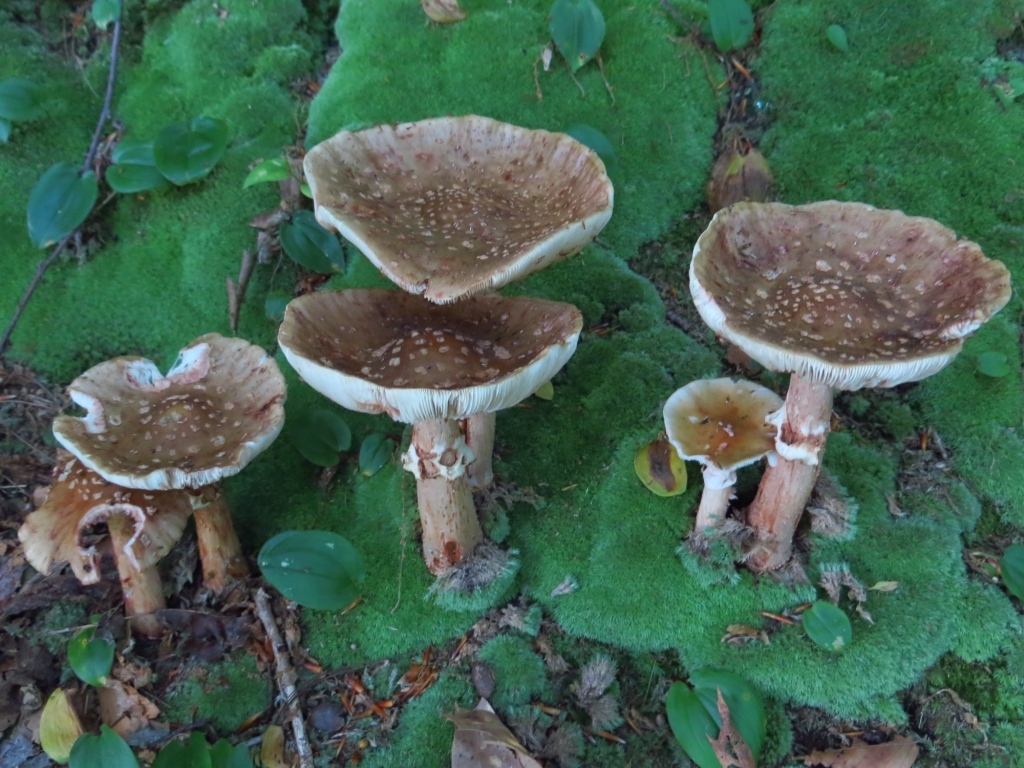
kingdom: Fungi
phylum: Basidiomycota
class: Agaricomycetes
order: Agaricales
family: Amanitaceae
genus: Amanita
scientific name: Amanita rubescens
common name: Blusher
